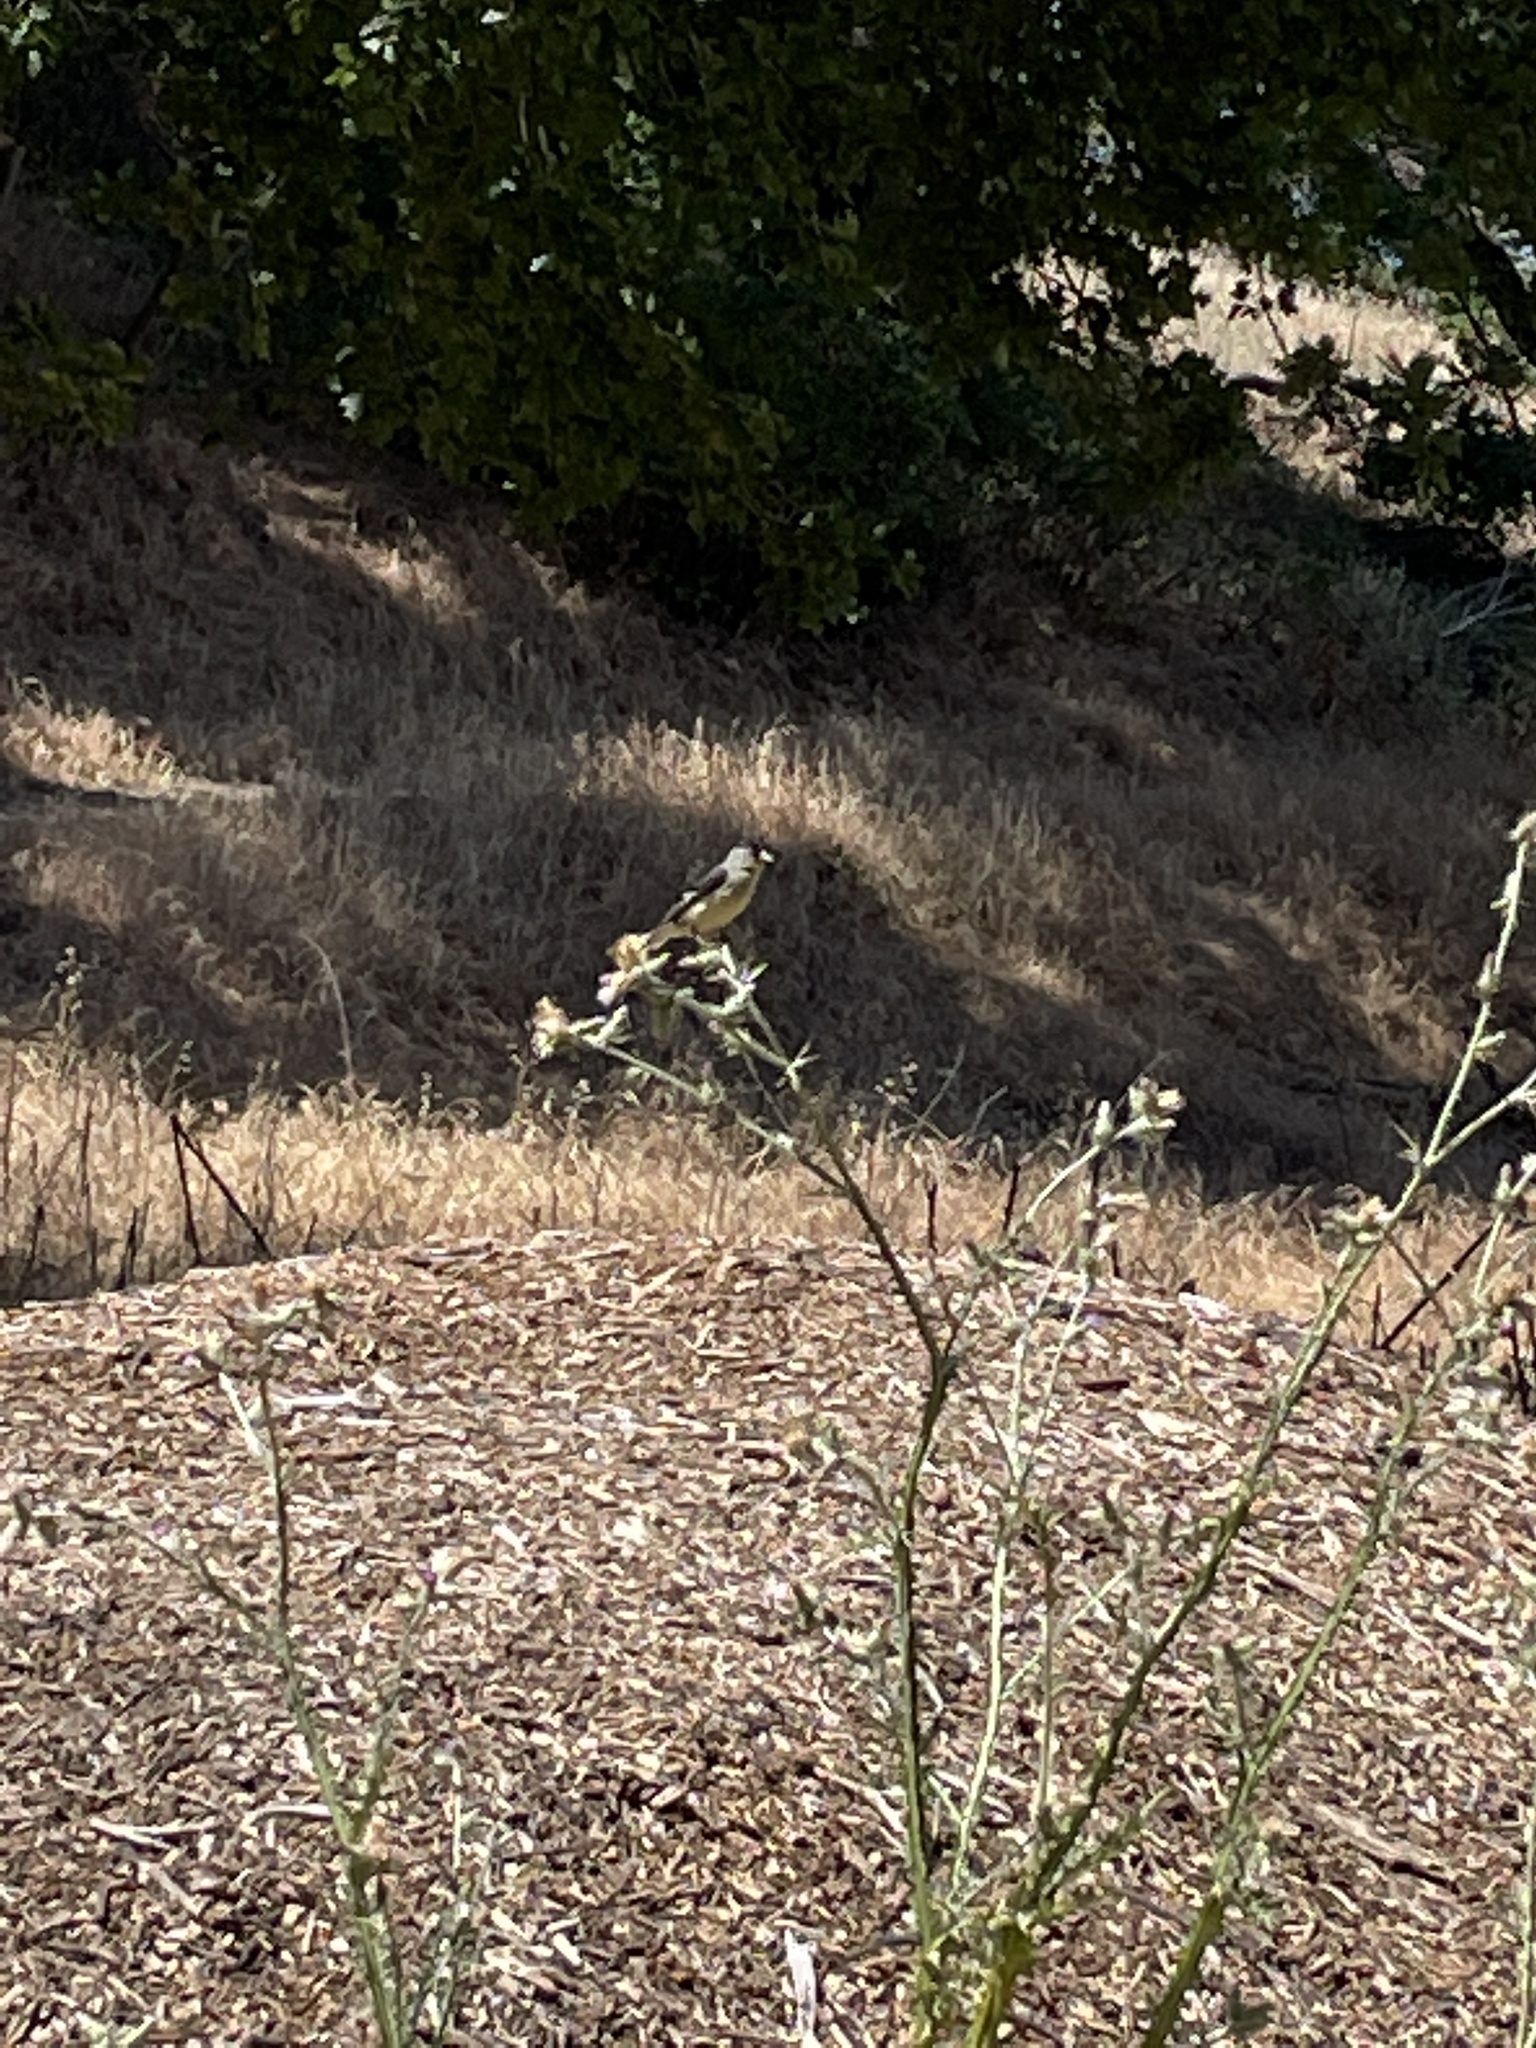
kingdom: Animalia
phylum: Chordata
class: Aves
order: Passeriformes
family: Fringillidae
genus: Spinus
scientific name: Spinus psaltria
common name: Lesser goldfinch
